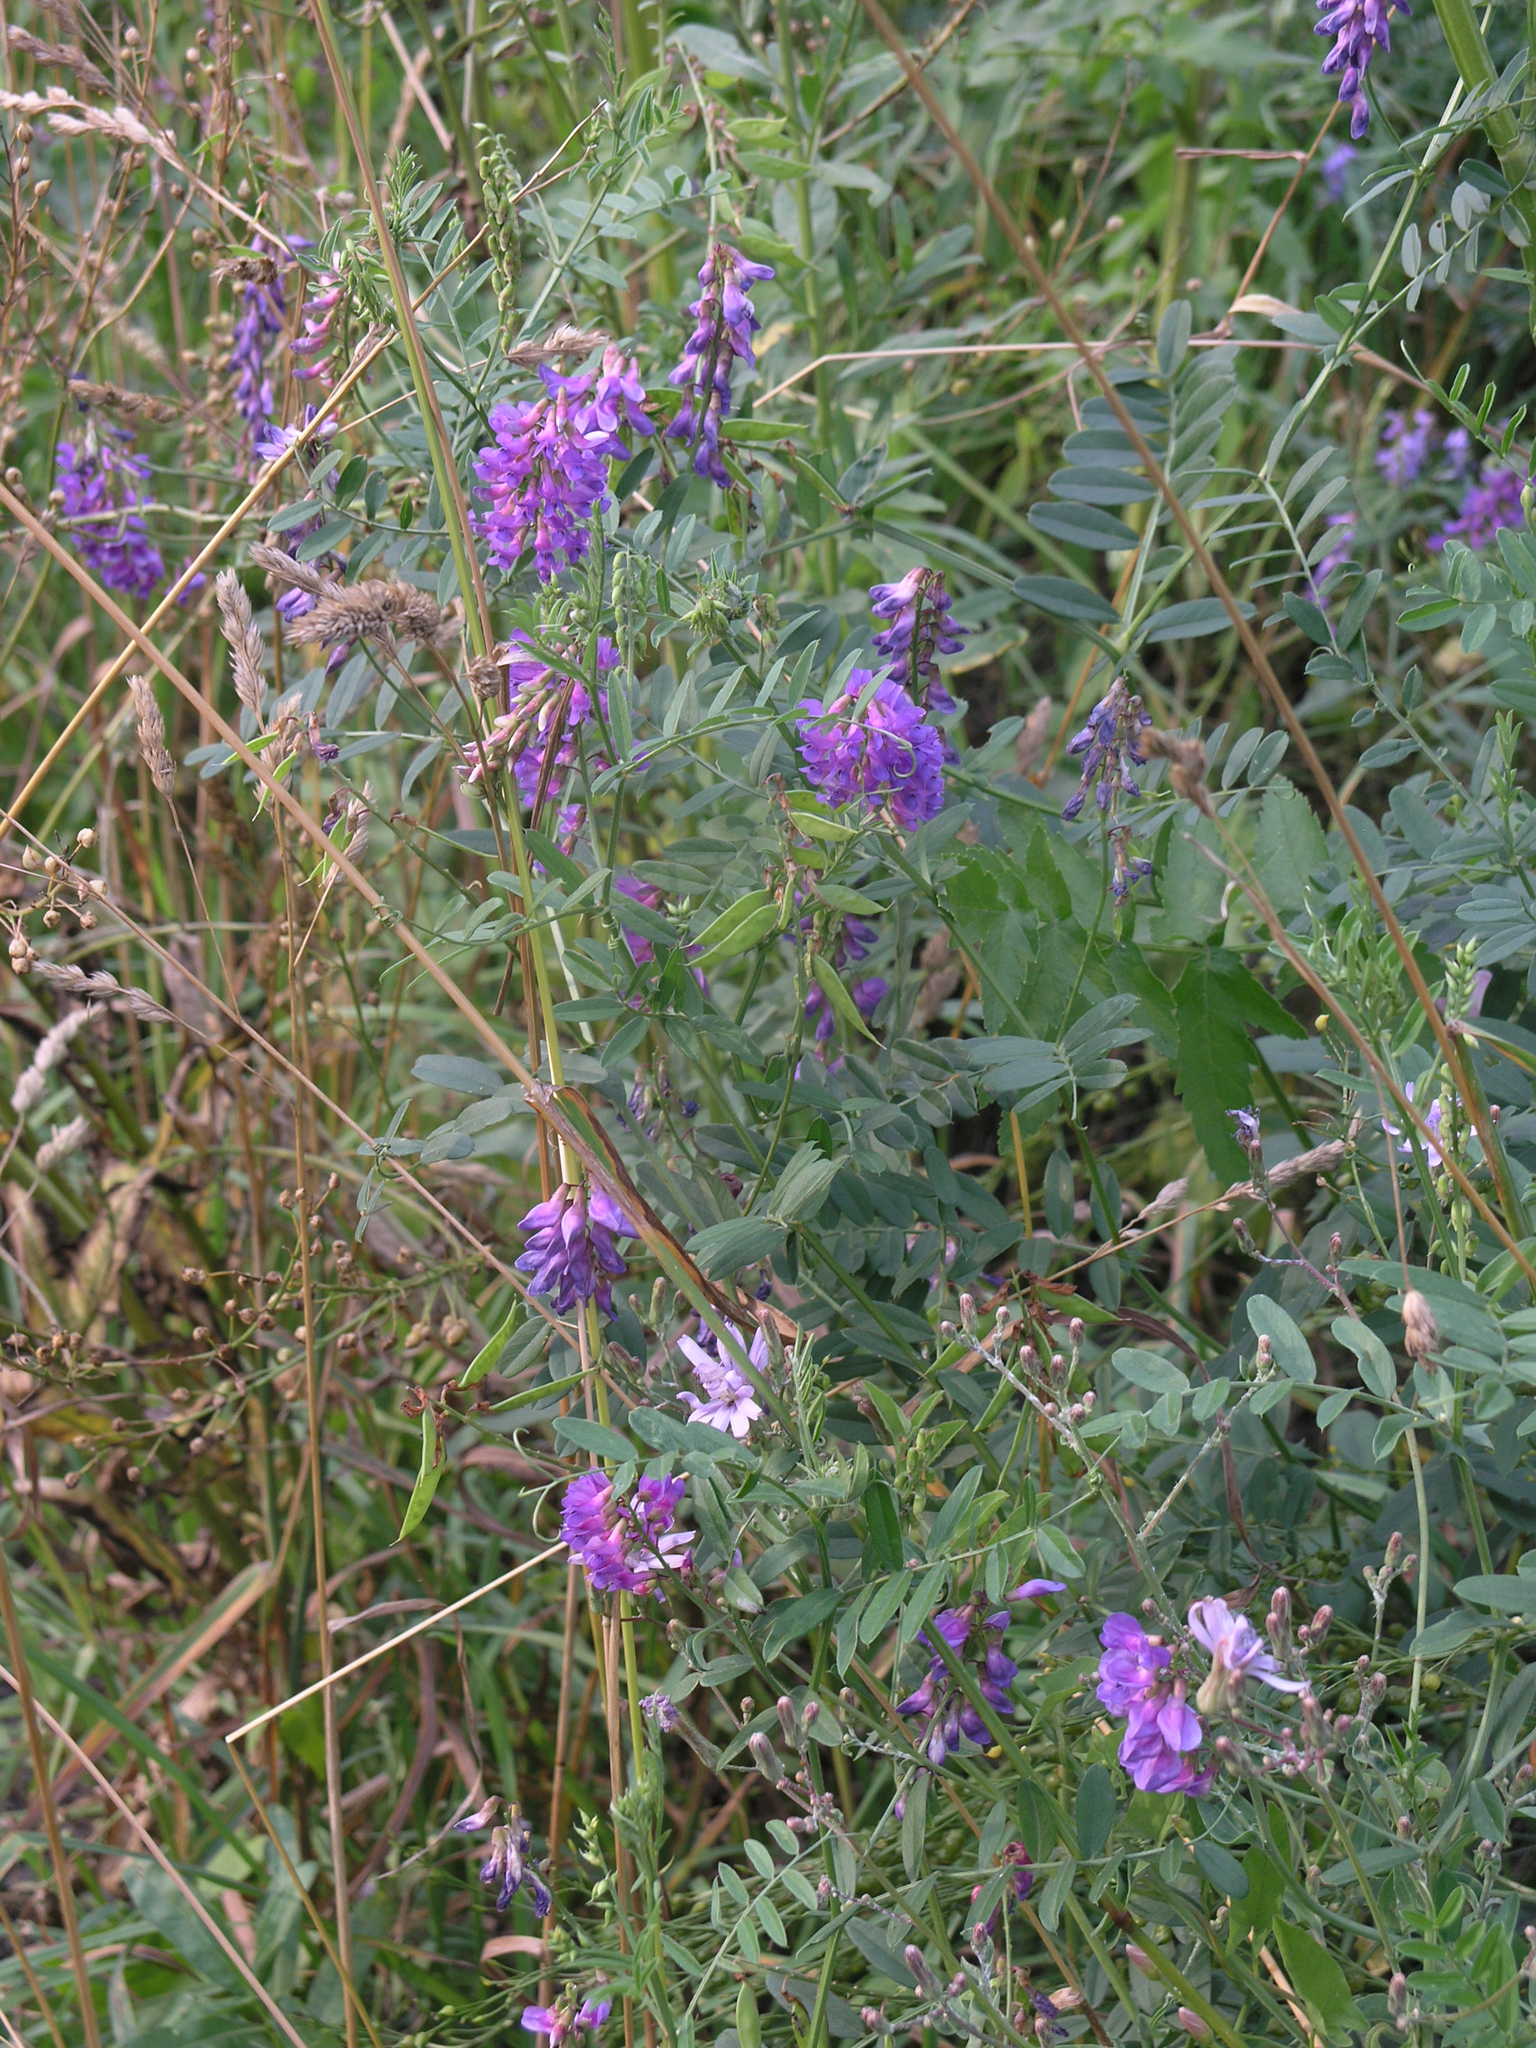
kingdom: Plantae
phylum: Tracheophyta
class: Magnoliopsida
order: Fabales
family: Fabaceae
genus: Vicia
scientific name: Vicia amoena
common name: Cheder ebs
